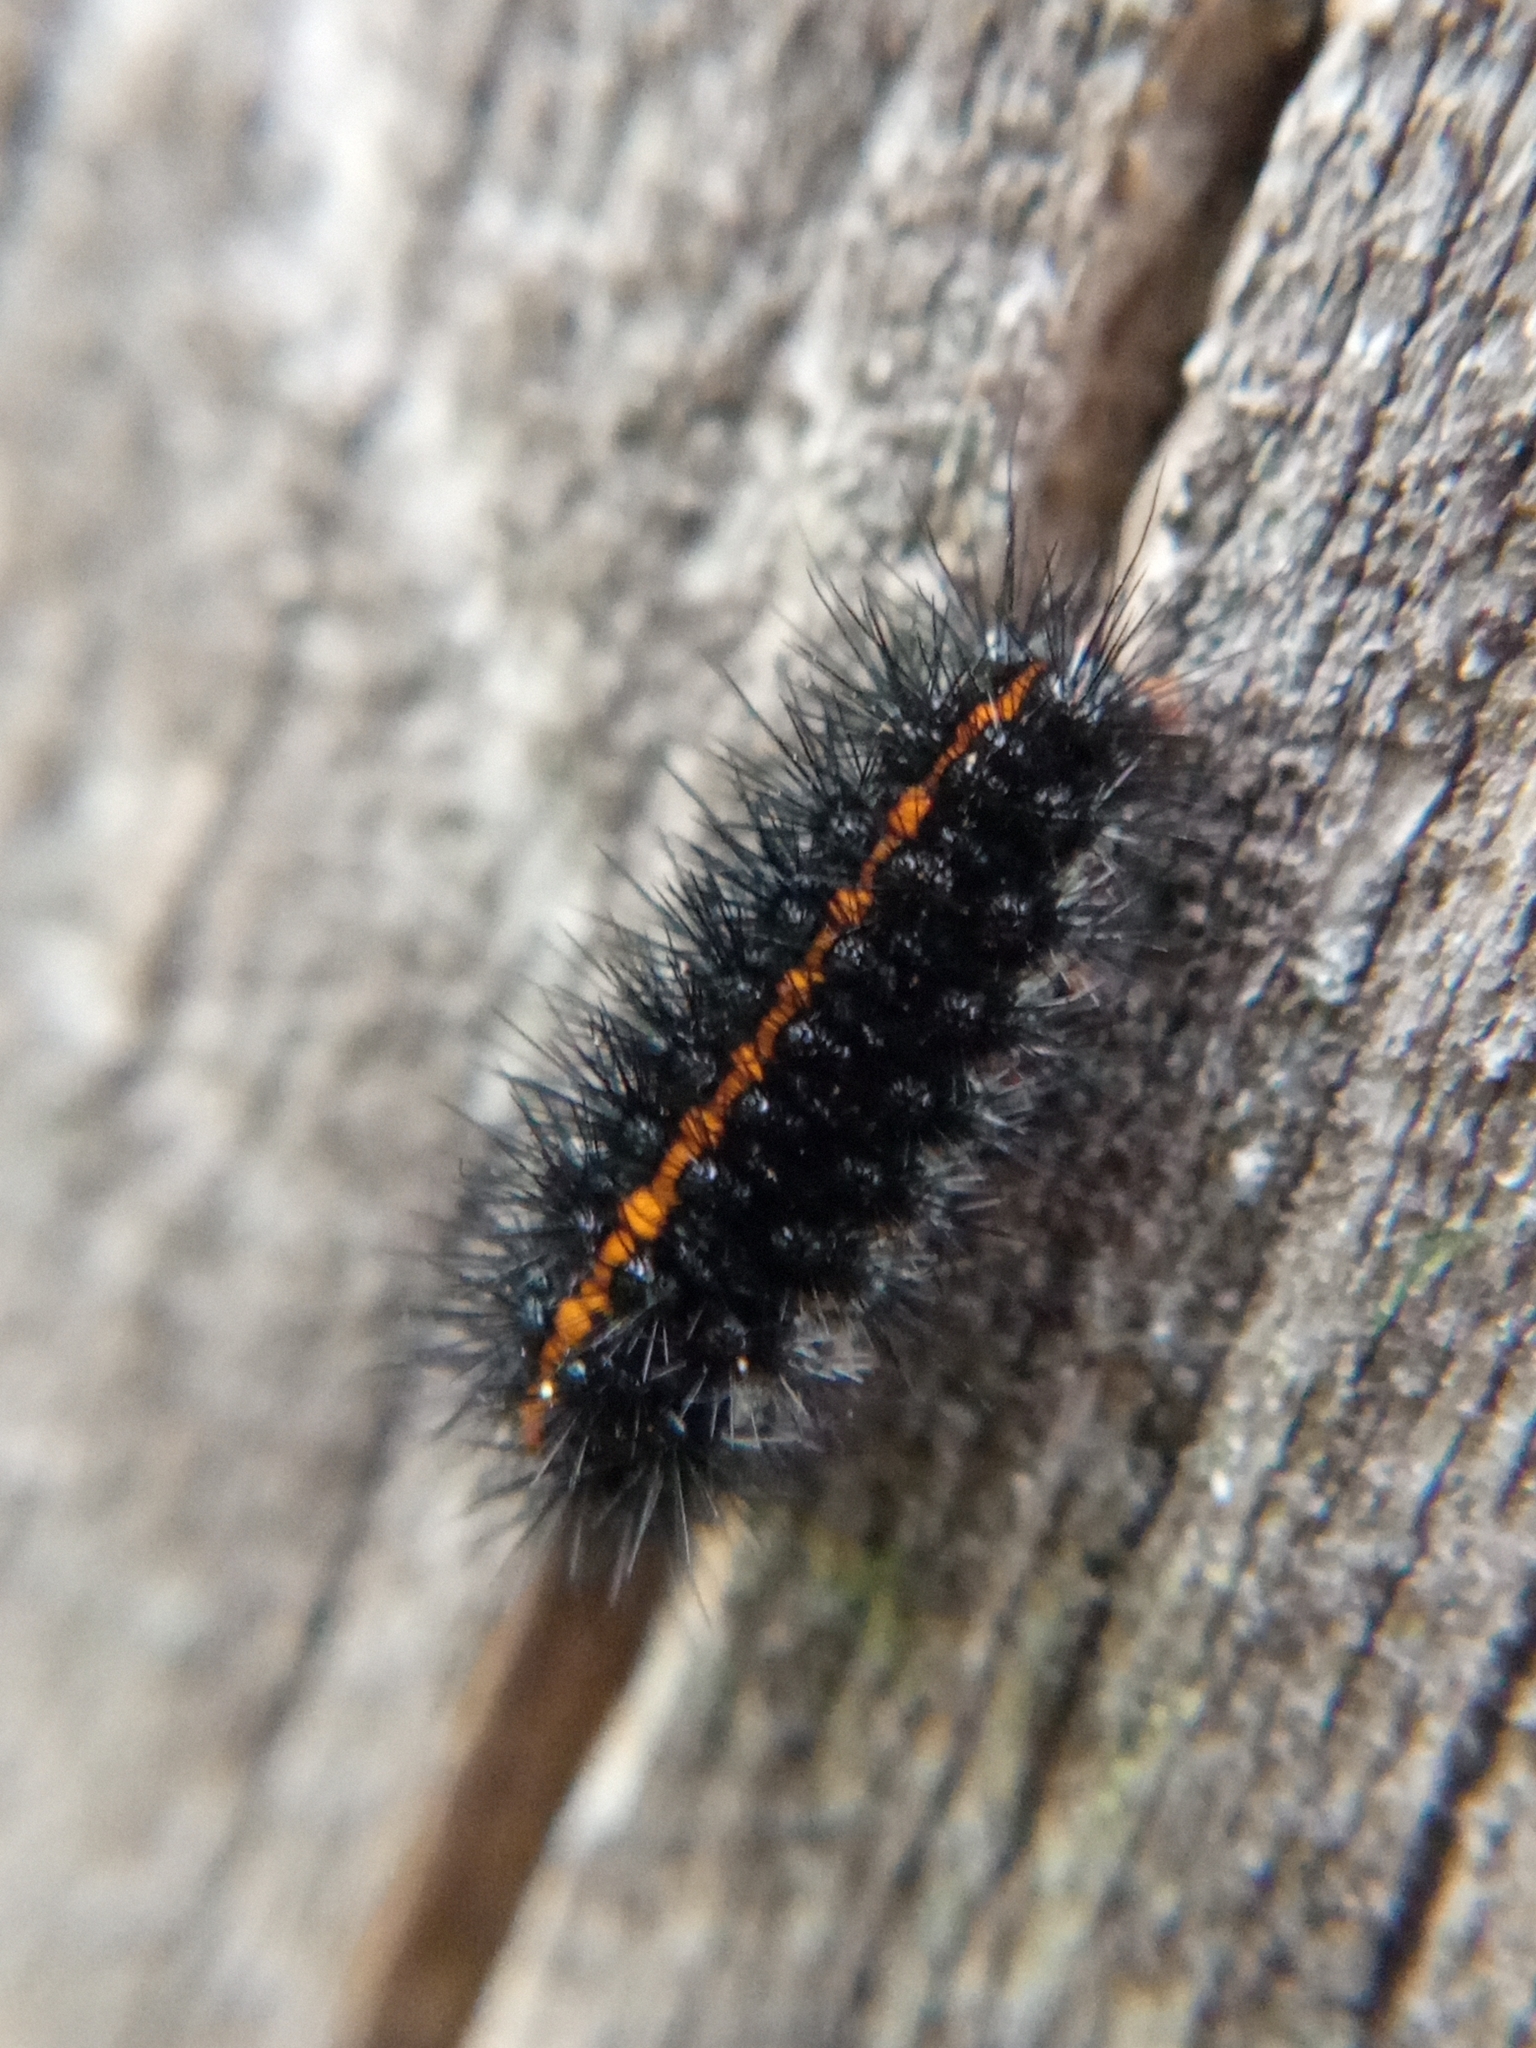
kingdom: Animalia
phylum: Arthropoda
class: Insecta
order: Lepidoptera
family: Erebidae
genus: Coscinia
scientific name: Coscinia Spiris striata
